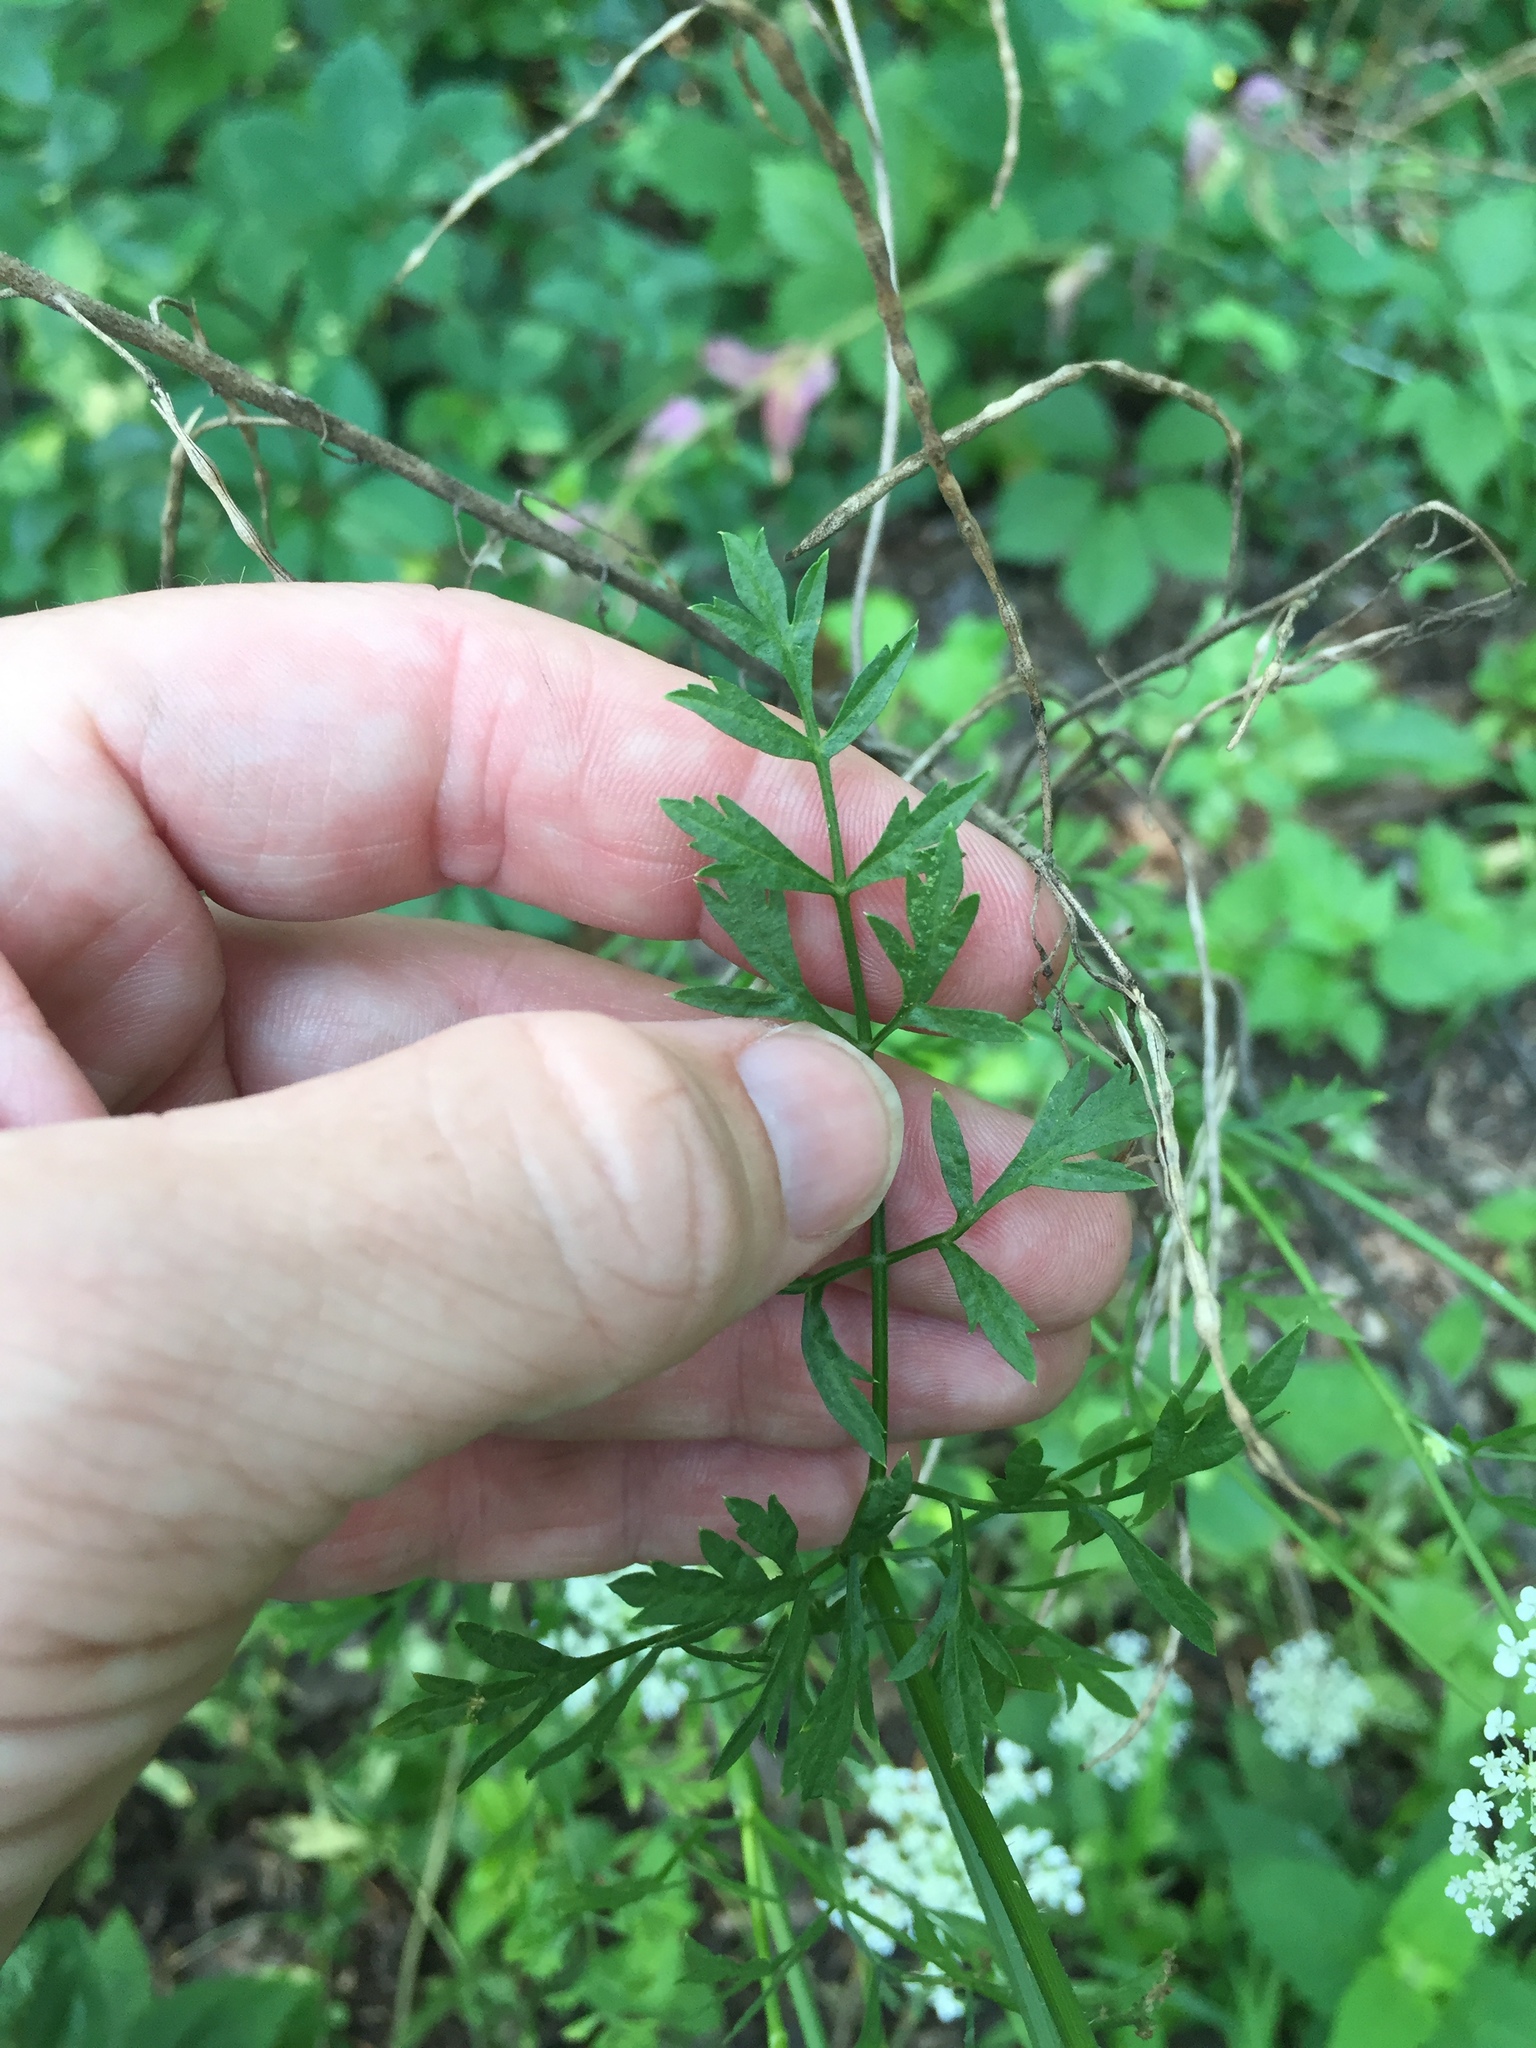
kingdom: Plantae
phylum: Tracheophyta
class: Magnoliopsida
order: Apiales
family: Apiaceae
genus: Daucus
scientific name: Daucus carota
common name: Wild carrot
